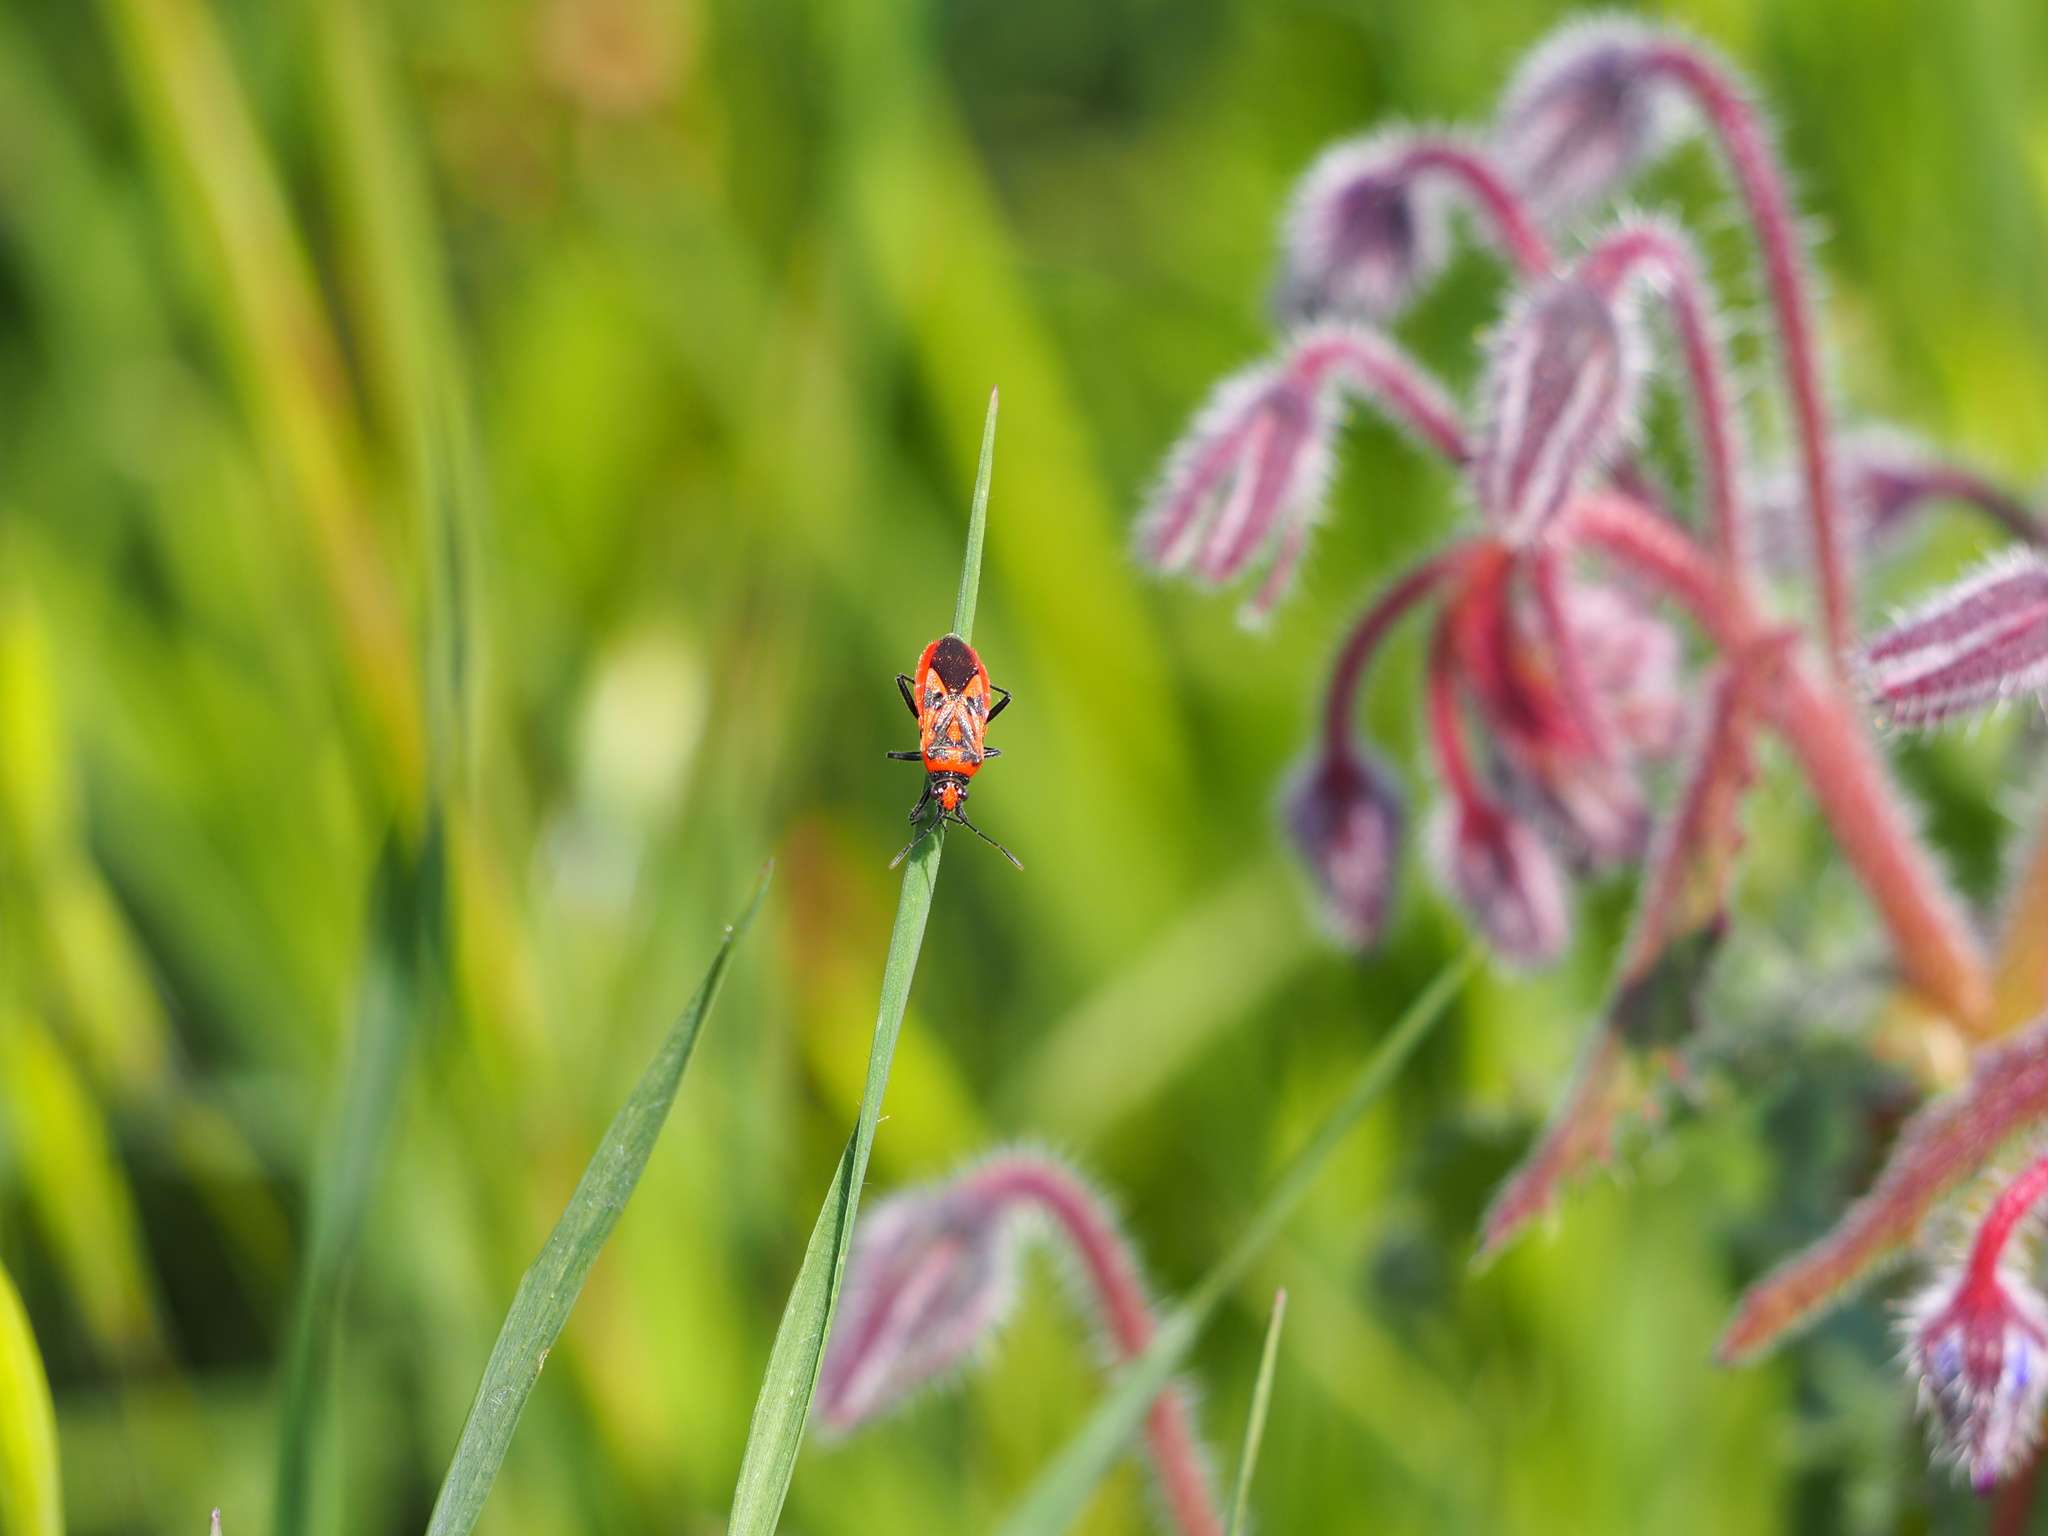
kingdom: Animalia
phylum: Arthropoda
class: Insecta
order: Hemiptera
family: Rhopalidae
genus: Corizus
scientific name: Corizus hyoscyami
